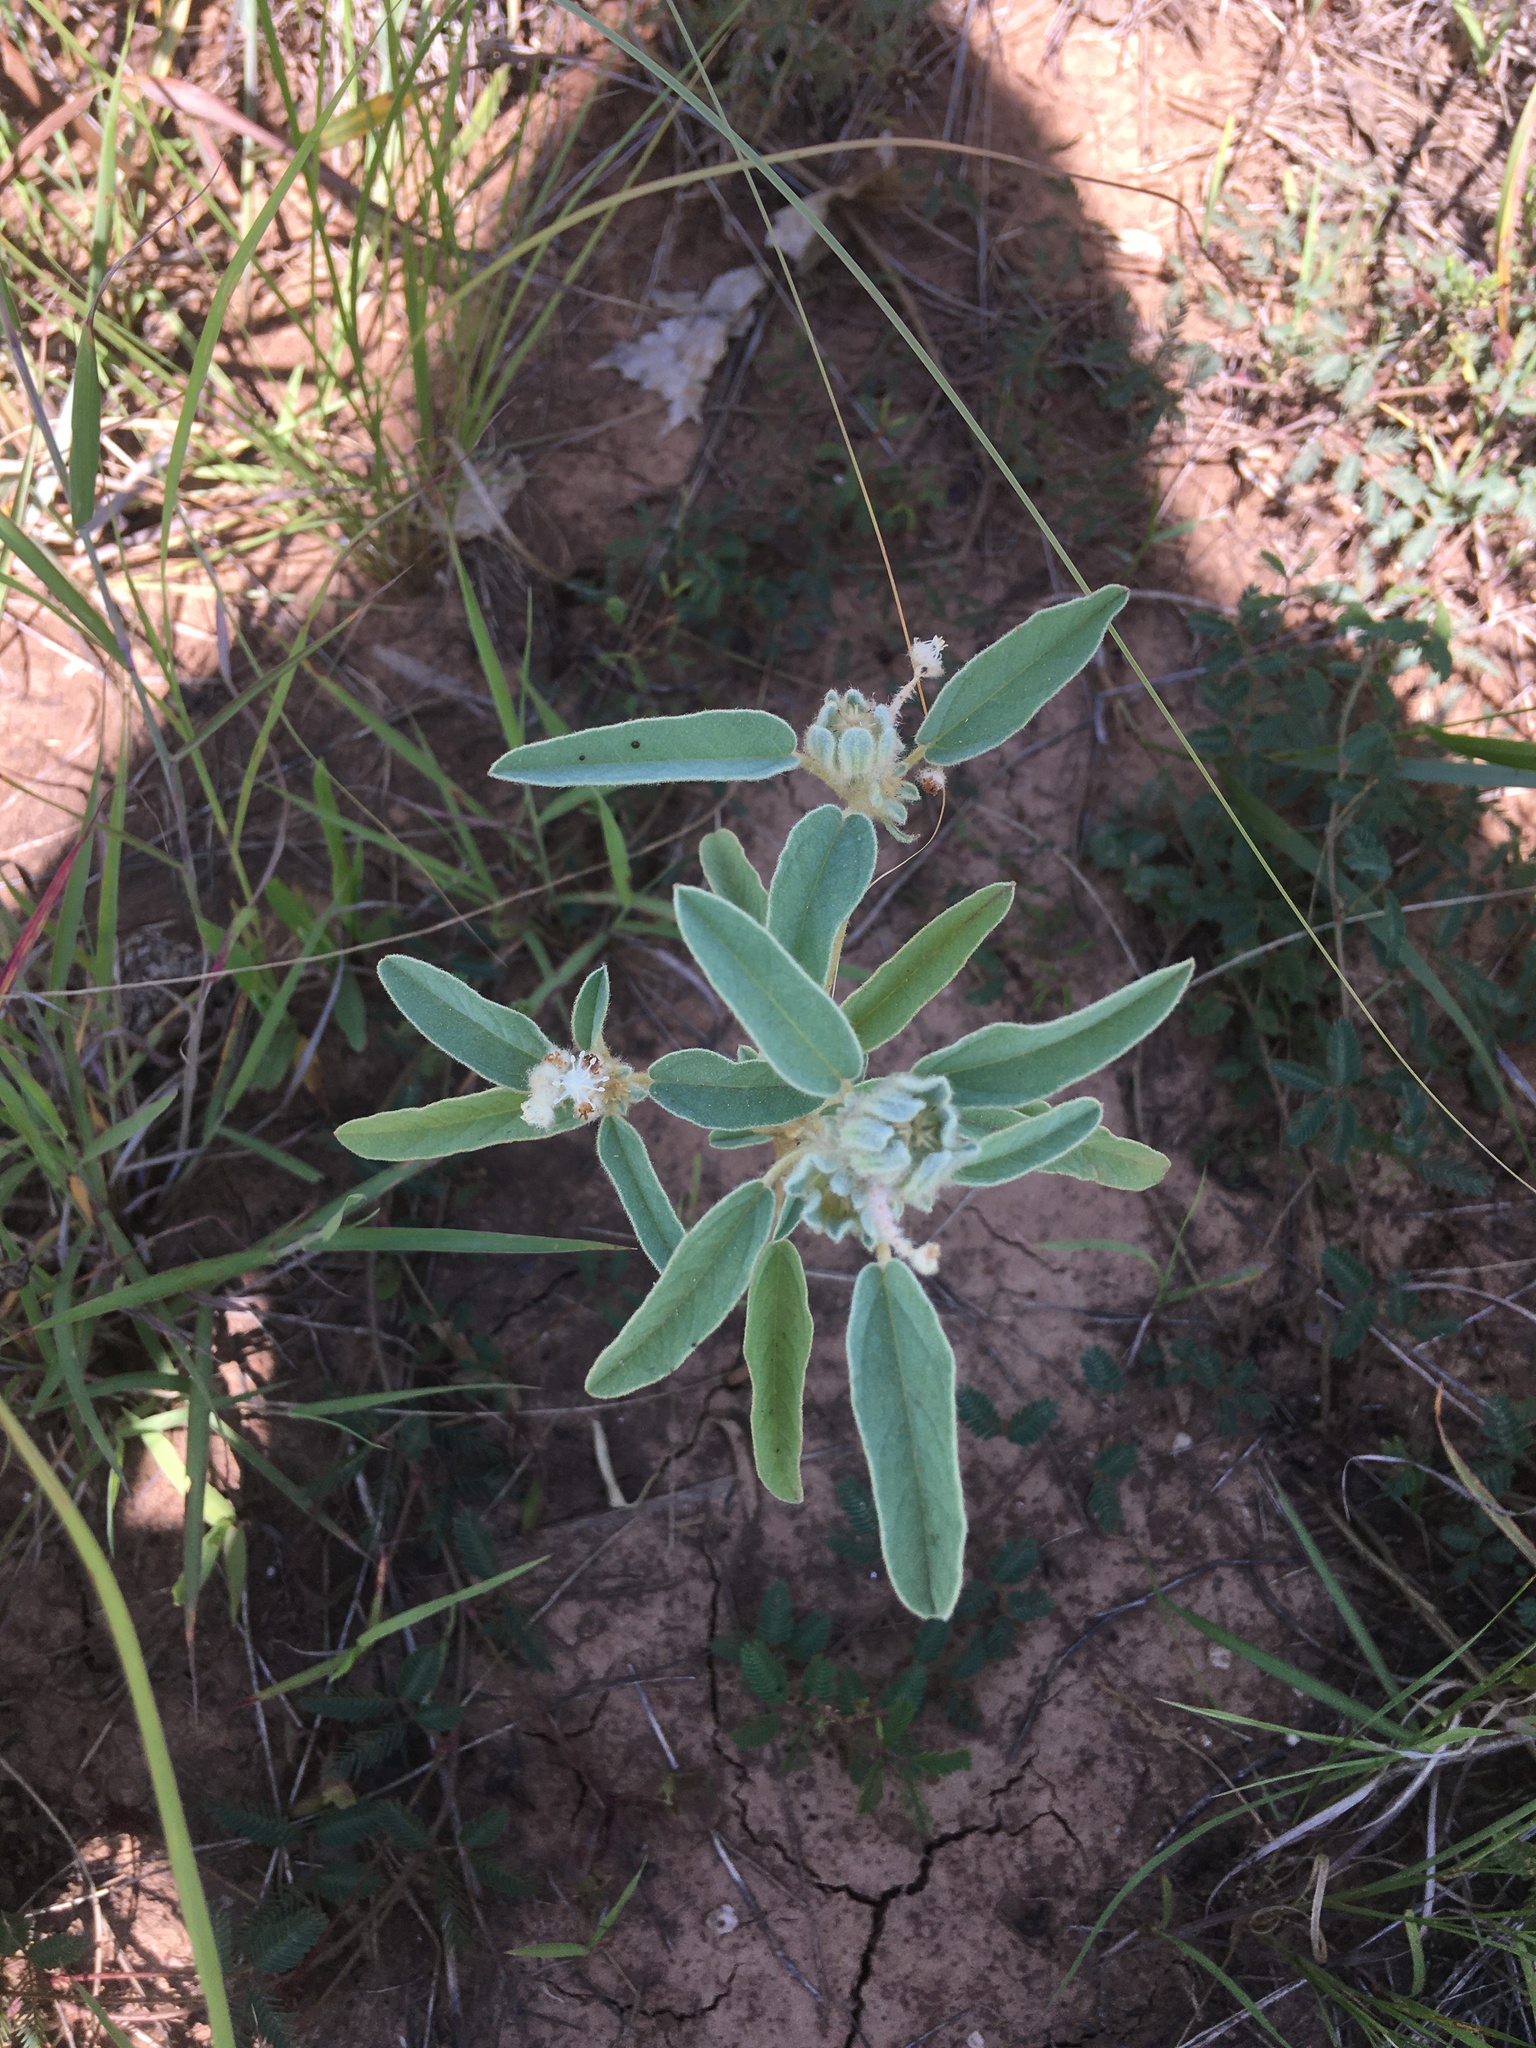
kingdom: Plantae
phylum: Tracheophyta
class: Magnoliopsida
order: Malpighiales
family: Euphorbiaceae
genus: Croton
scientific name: Croton capitatus
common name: Woolly croton
